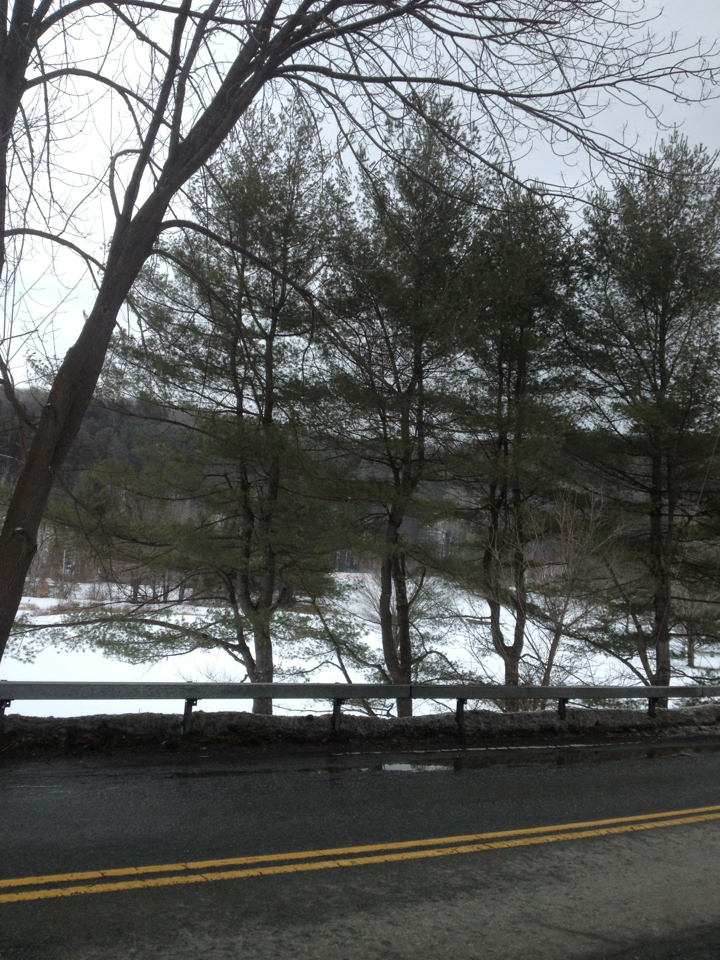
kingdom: Plantae
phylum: Tracheophyta
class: Pinopsida
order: Pinales
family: Pinaceae
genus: Pinus
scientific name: Pinus strobus
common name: Weymouth pine
